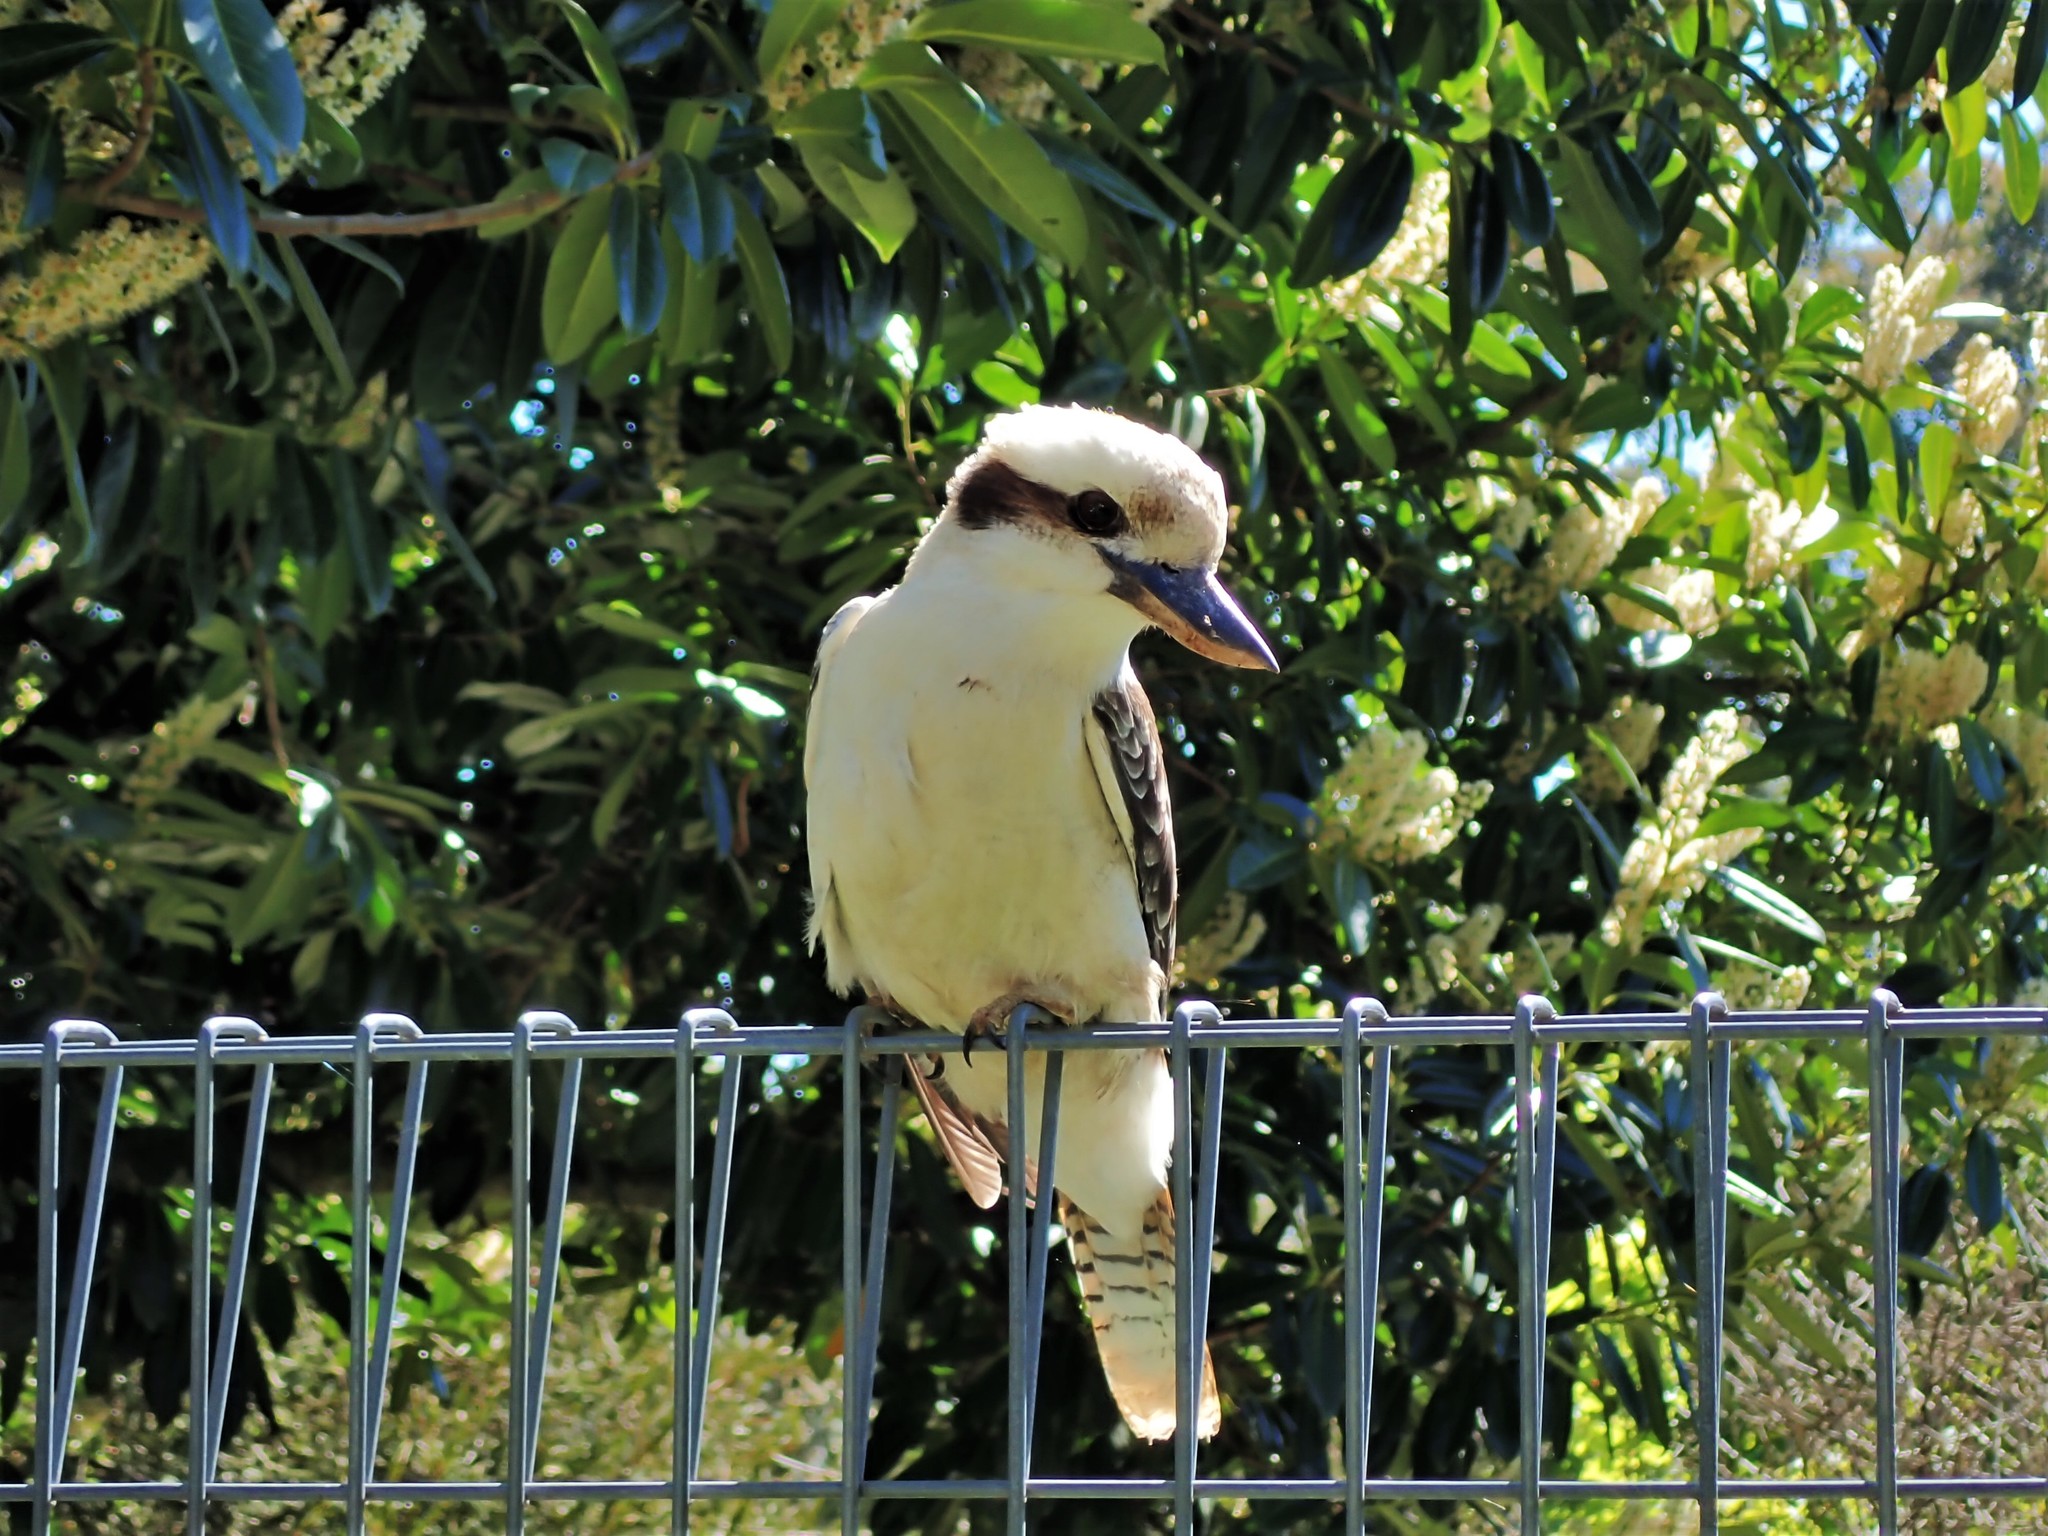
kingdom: Animalia
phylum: Chordata
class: Aves
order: Coraciiformes
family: Alcedinidae
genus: Dacelo
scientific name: Dacelo novaeguineae
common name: Laughing kookaburra
